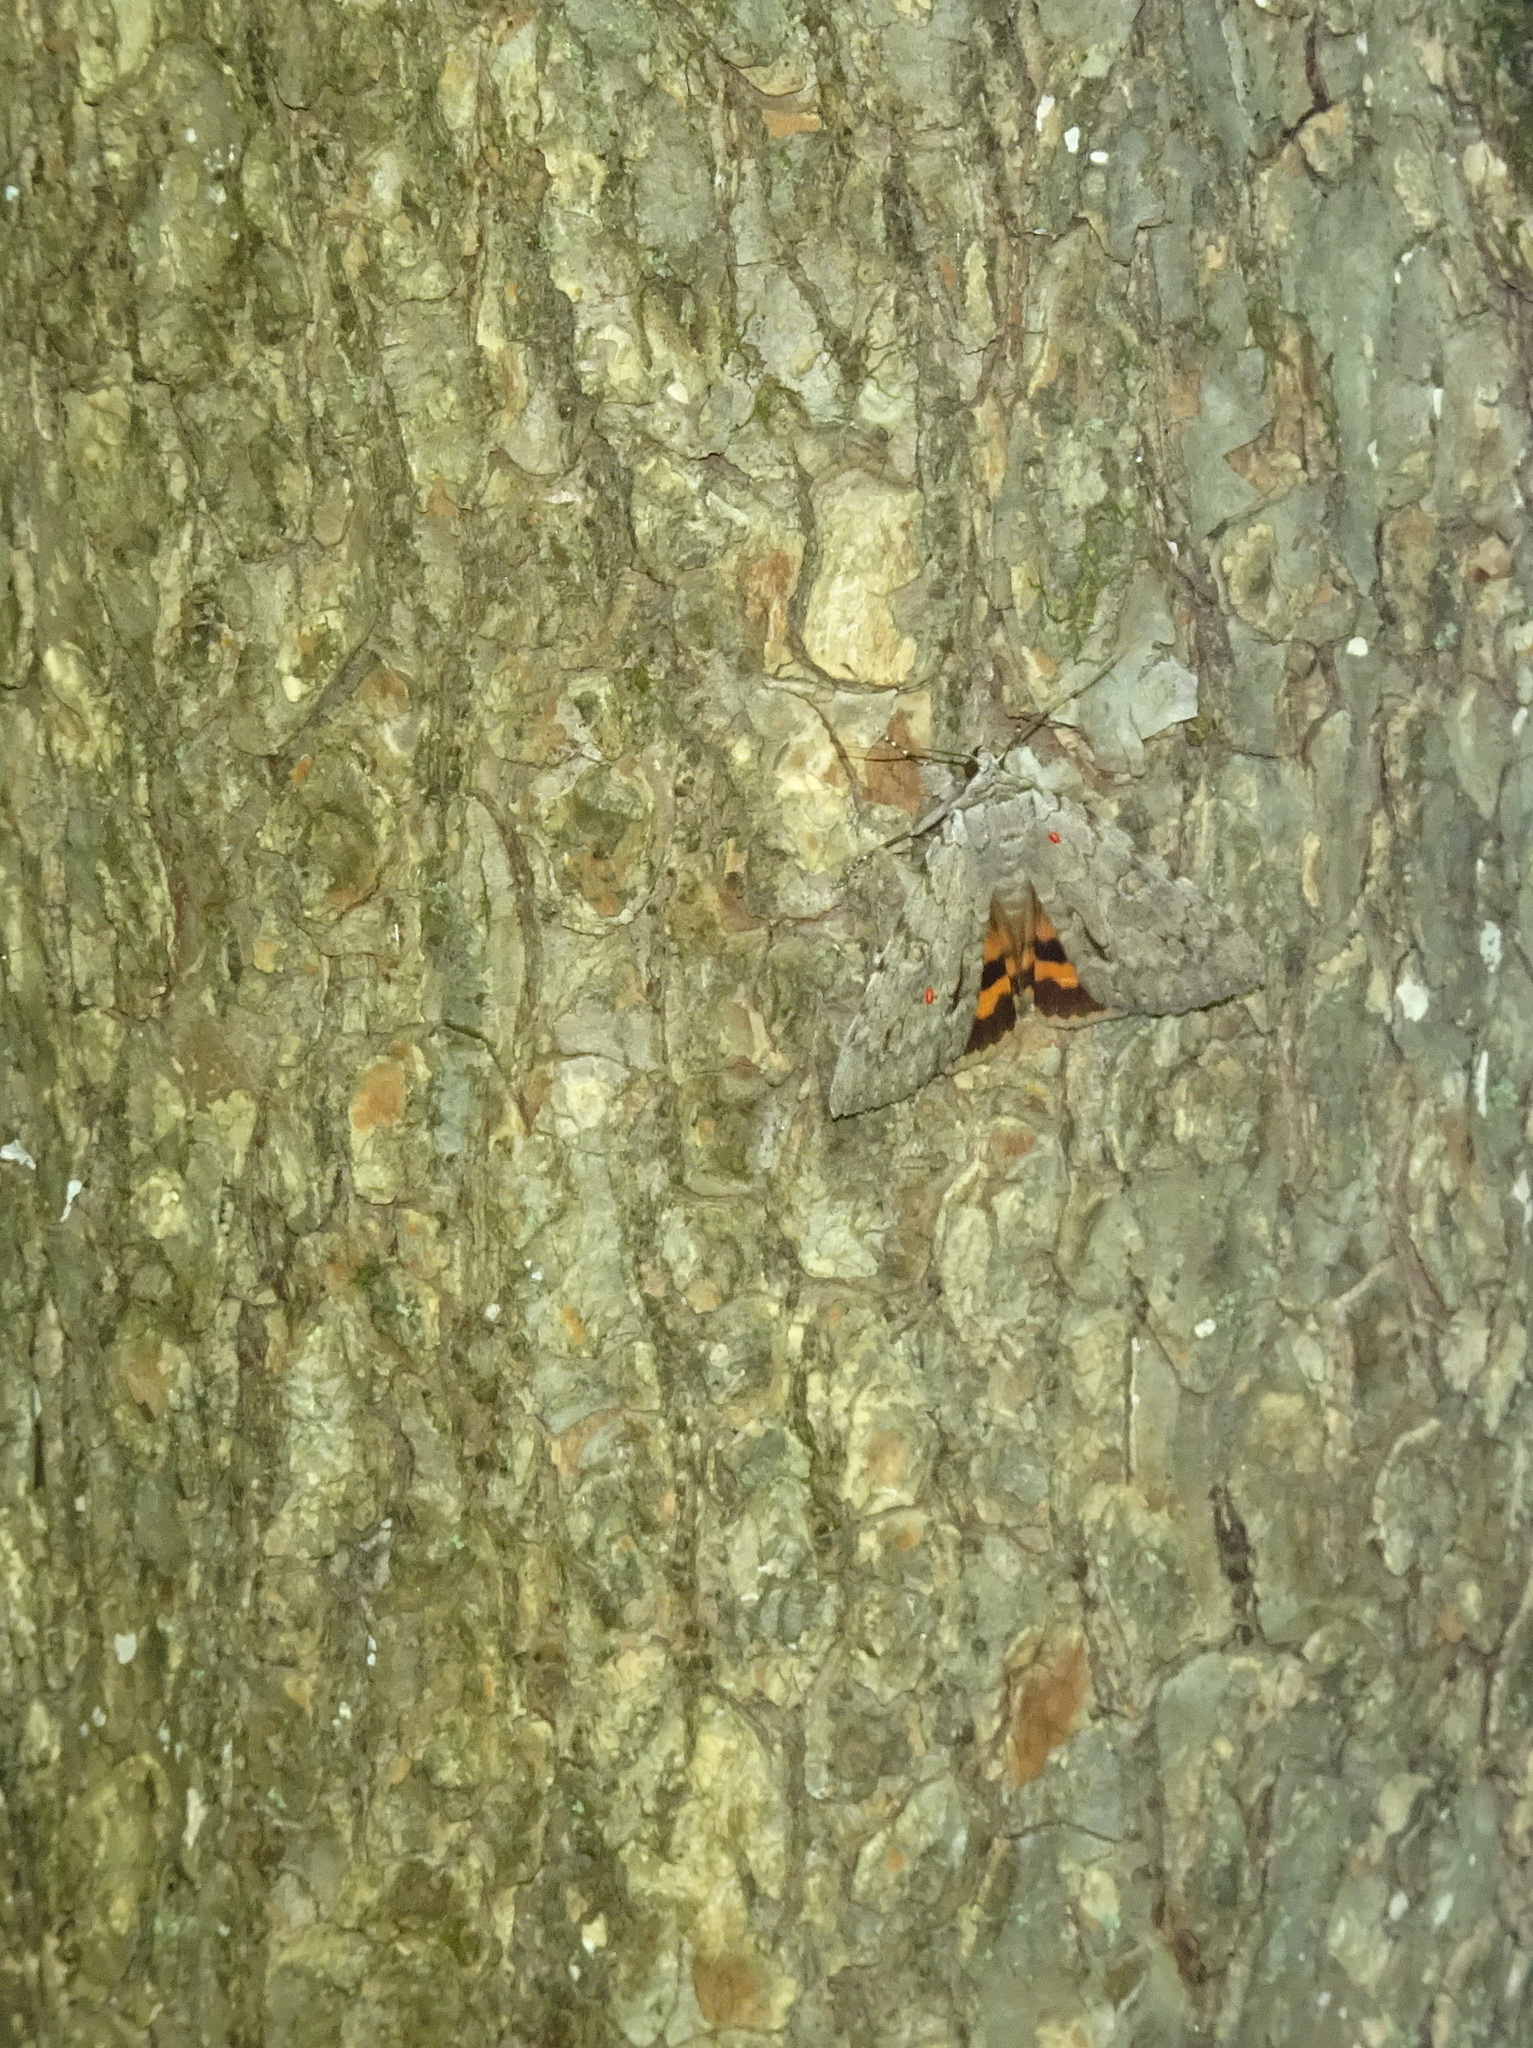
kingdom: Animalia
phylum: Arthropoda
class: Insecta
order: Lepidoptera
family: Erebidae
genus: Catocala
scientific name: Catocala habilis
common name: Habilis underwing
